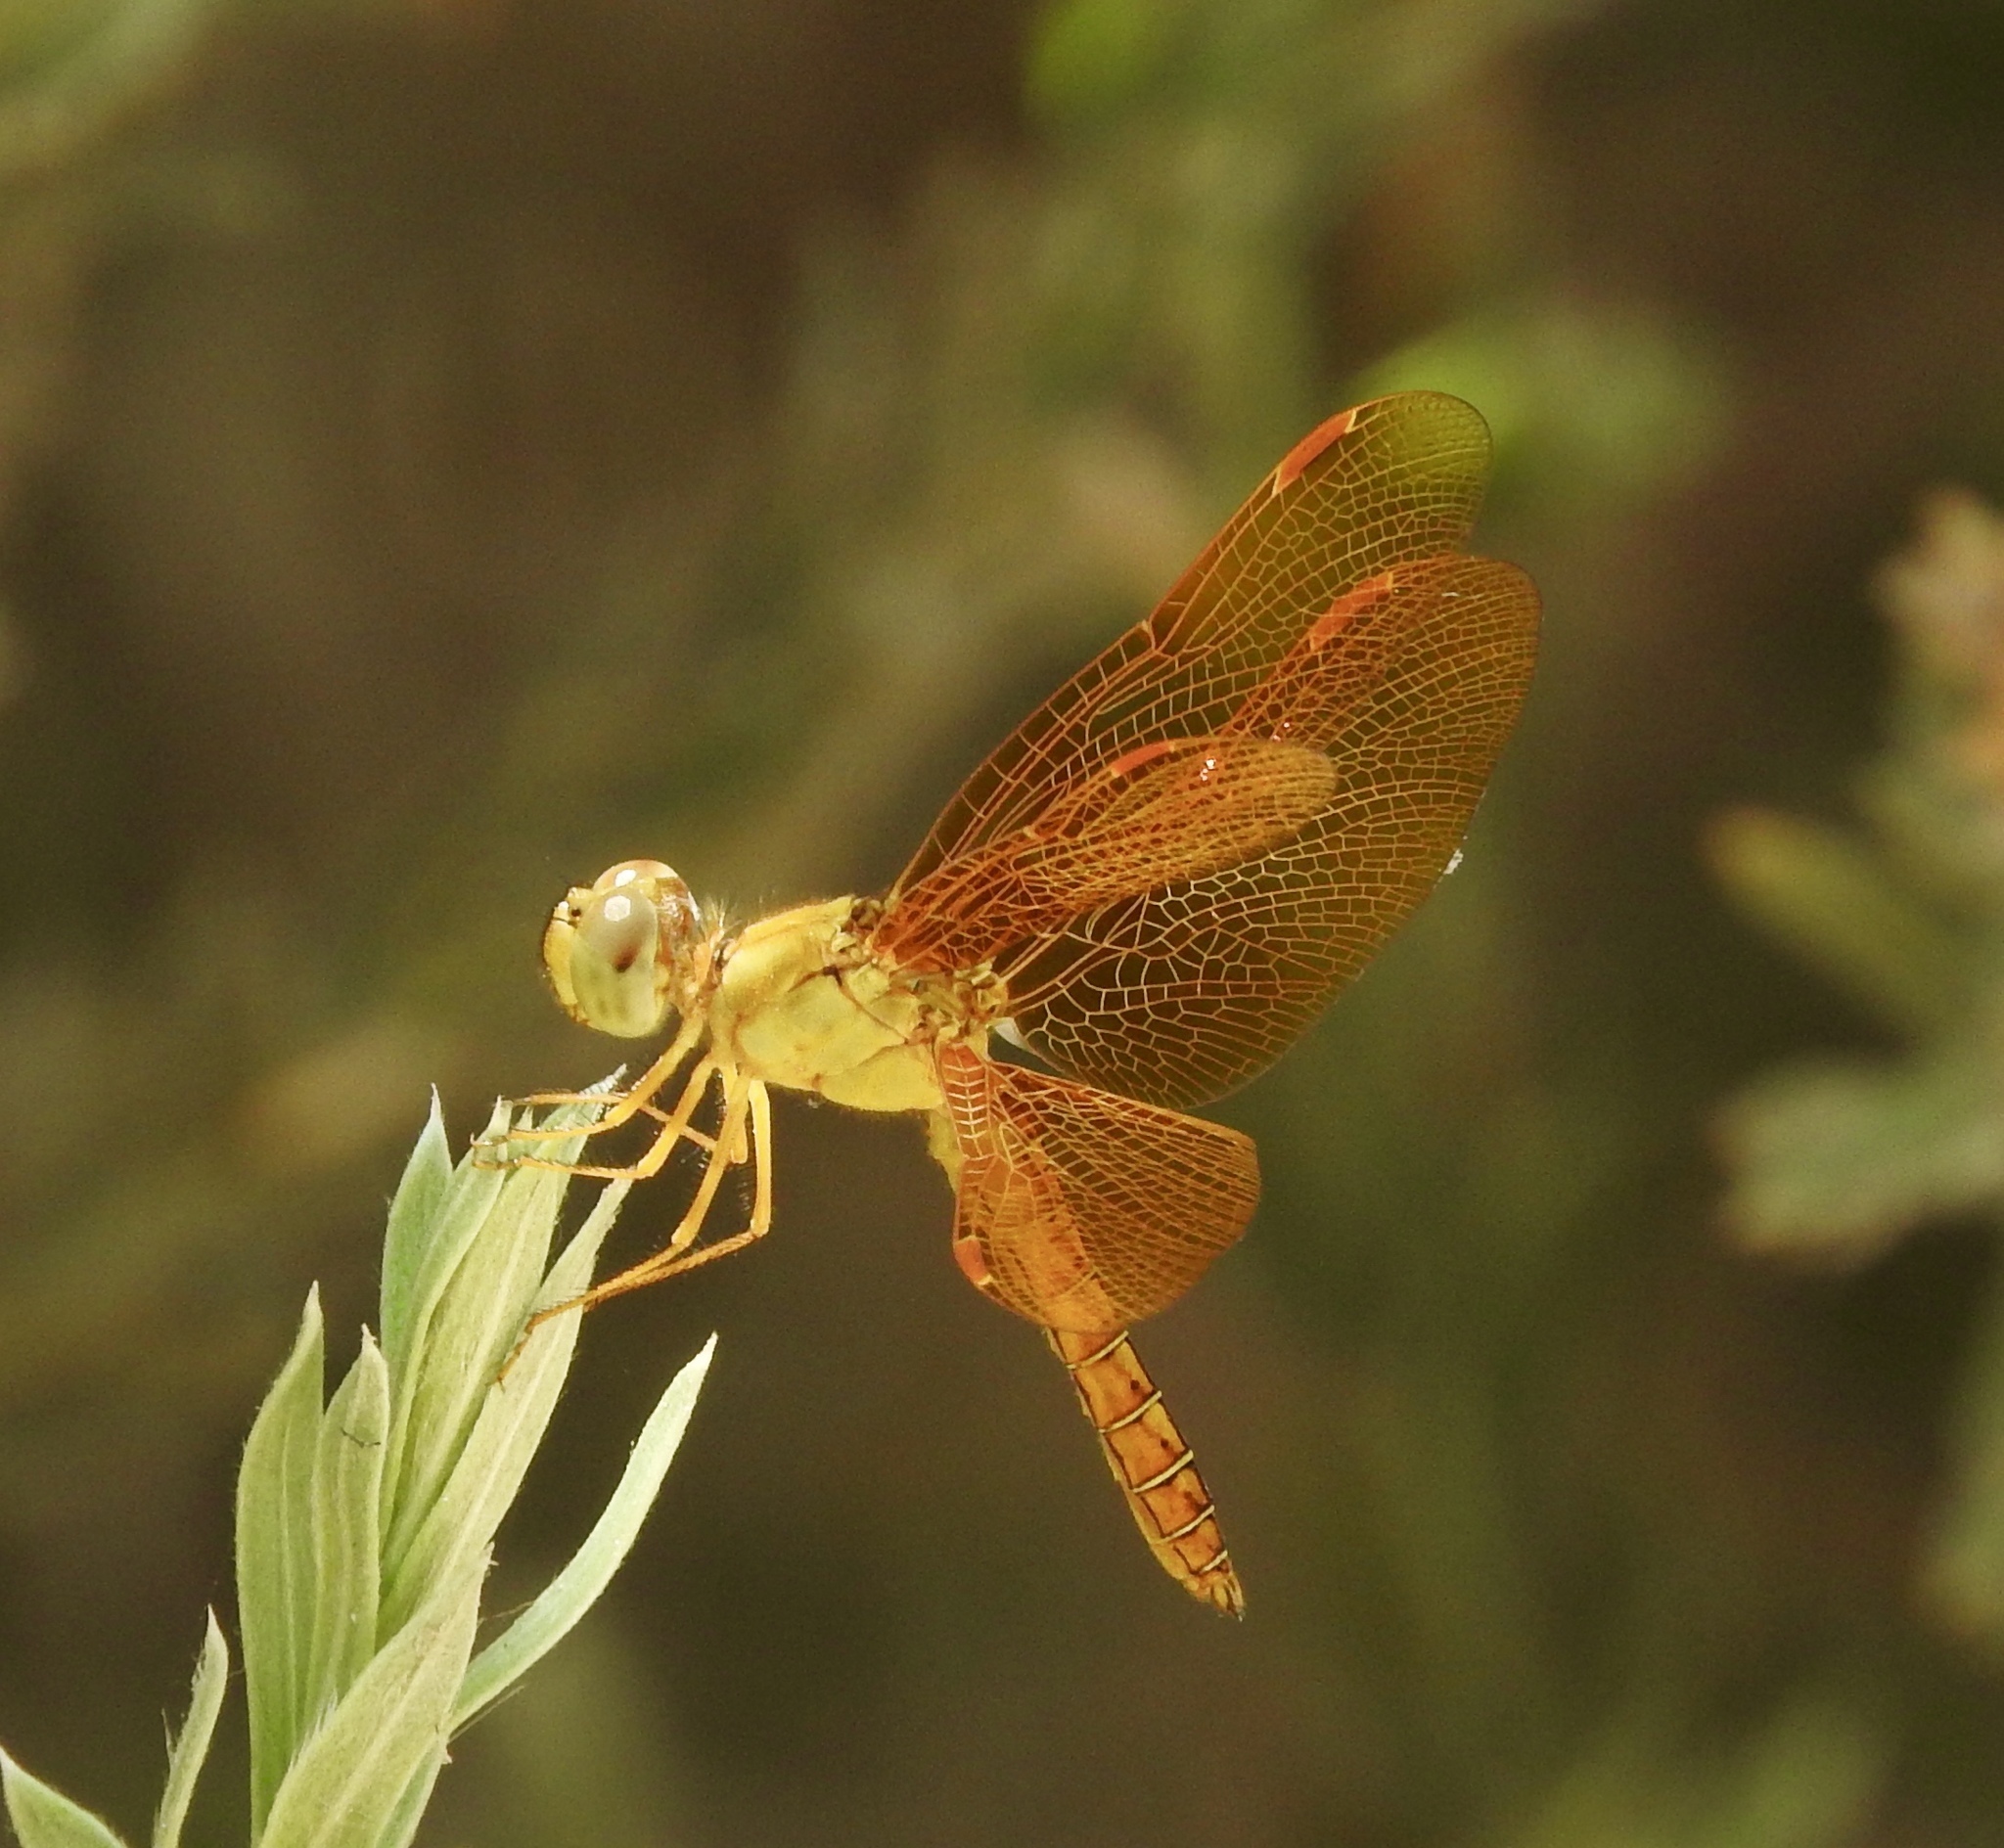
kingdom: Animalia
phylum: Arthropoda
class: Insecta
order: Odonata
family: Libellulidae
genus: Perithemis
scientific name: Perithemis intensa
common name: Mexican amberwing
